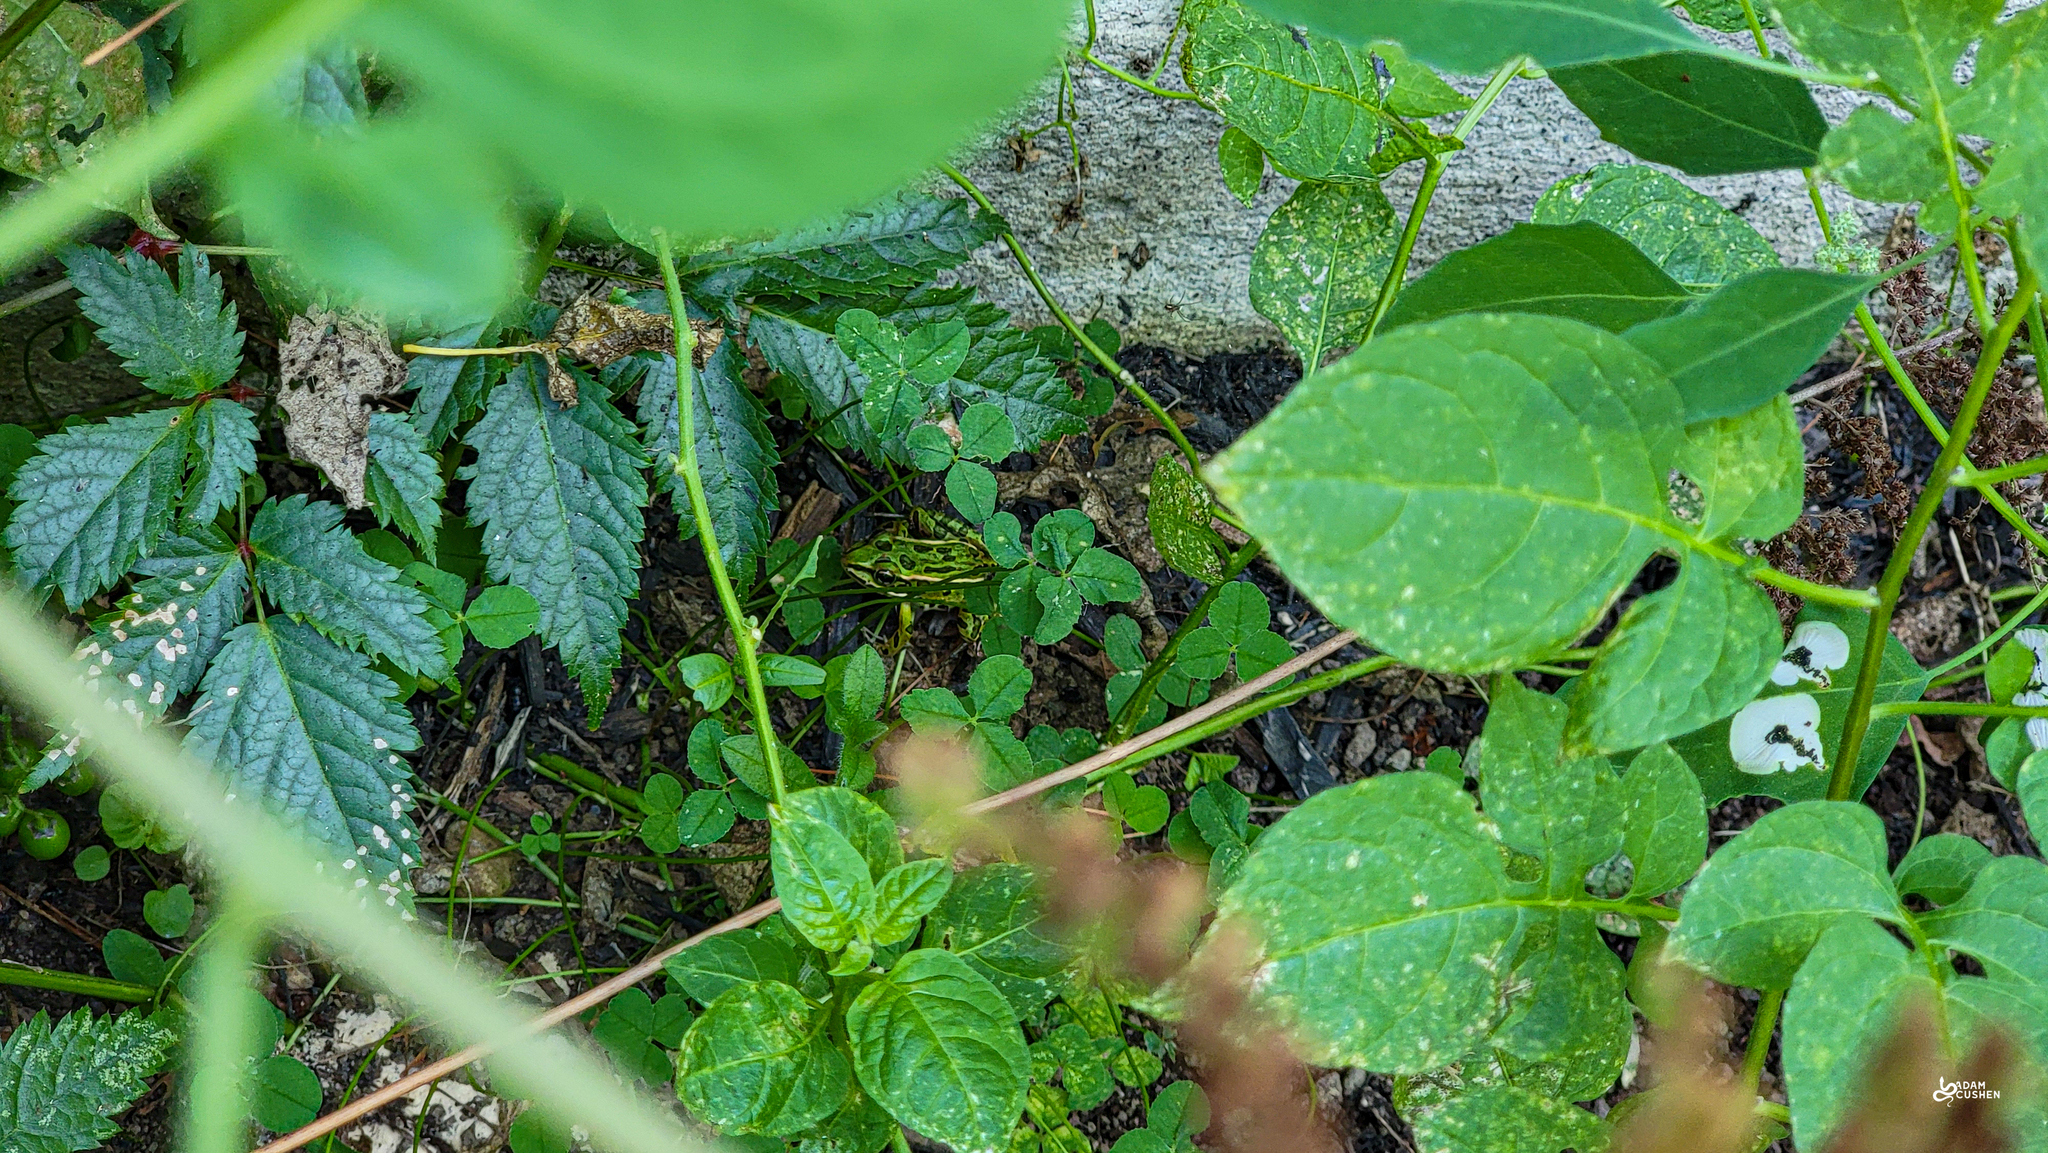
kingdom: Animalia
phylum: Chordata
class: Amphibia
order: Anura
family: Ranidae
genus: Lithobates
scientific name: Lithobates pipiens
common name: Northern leopard frog
